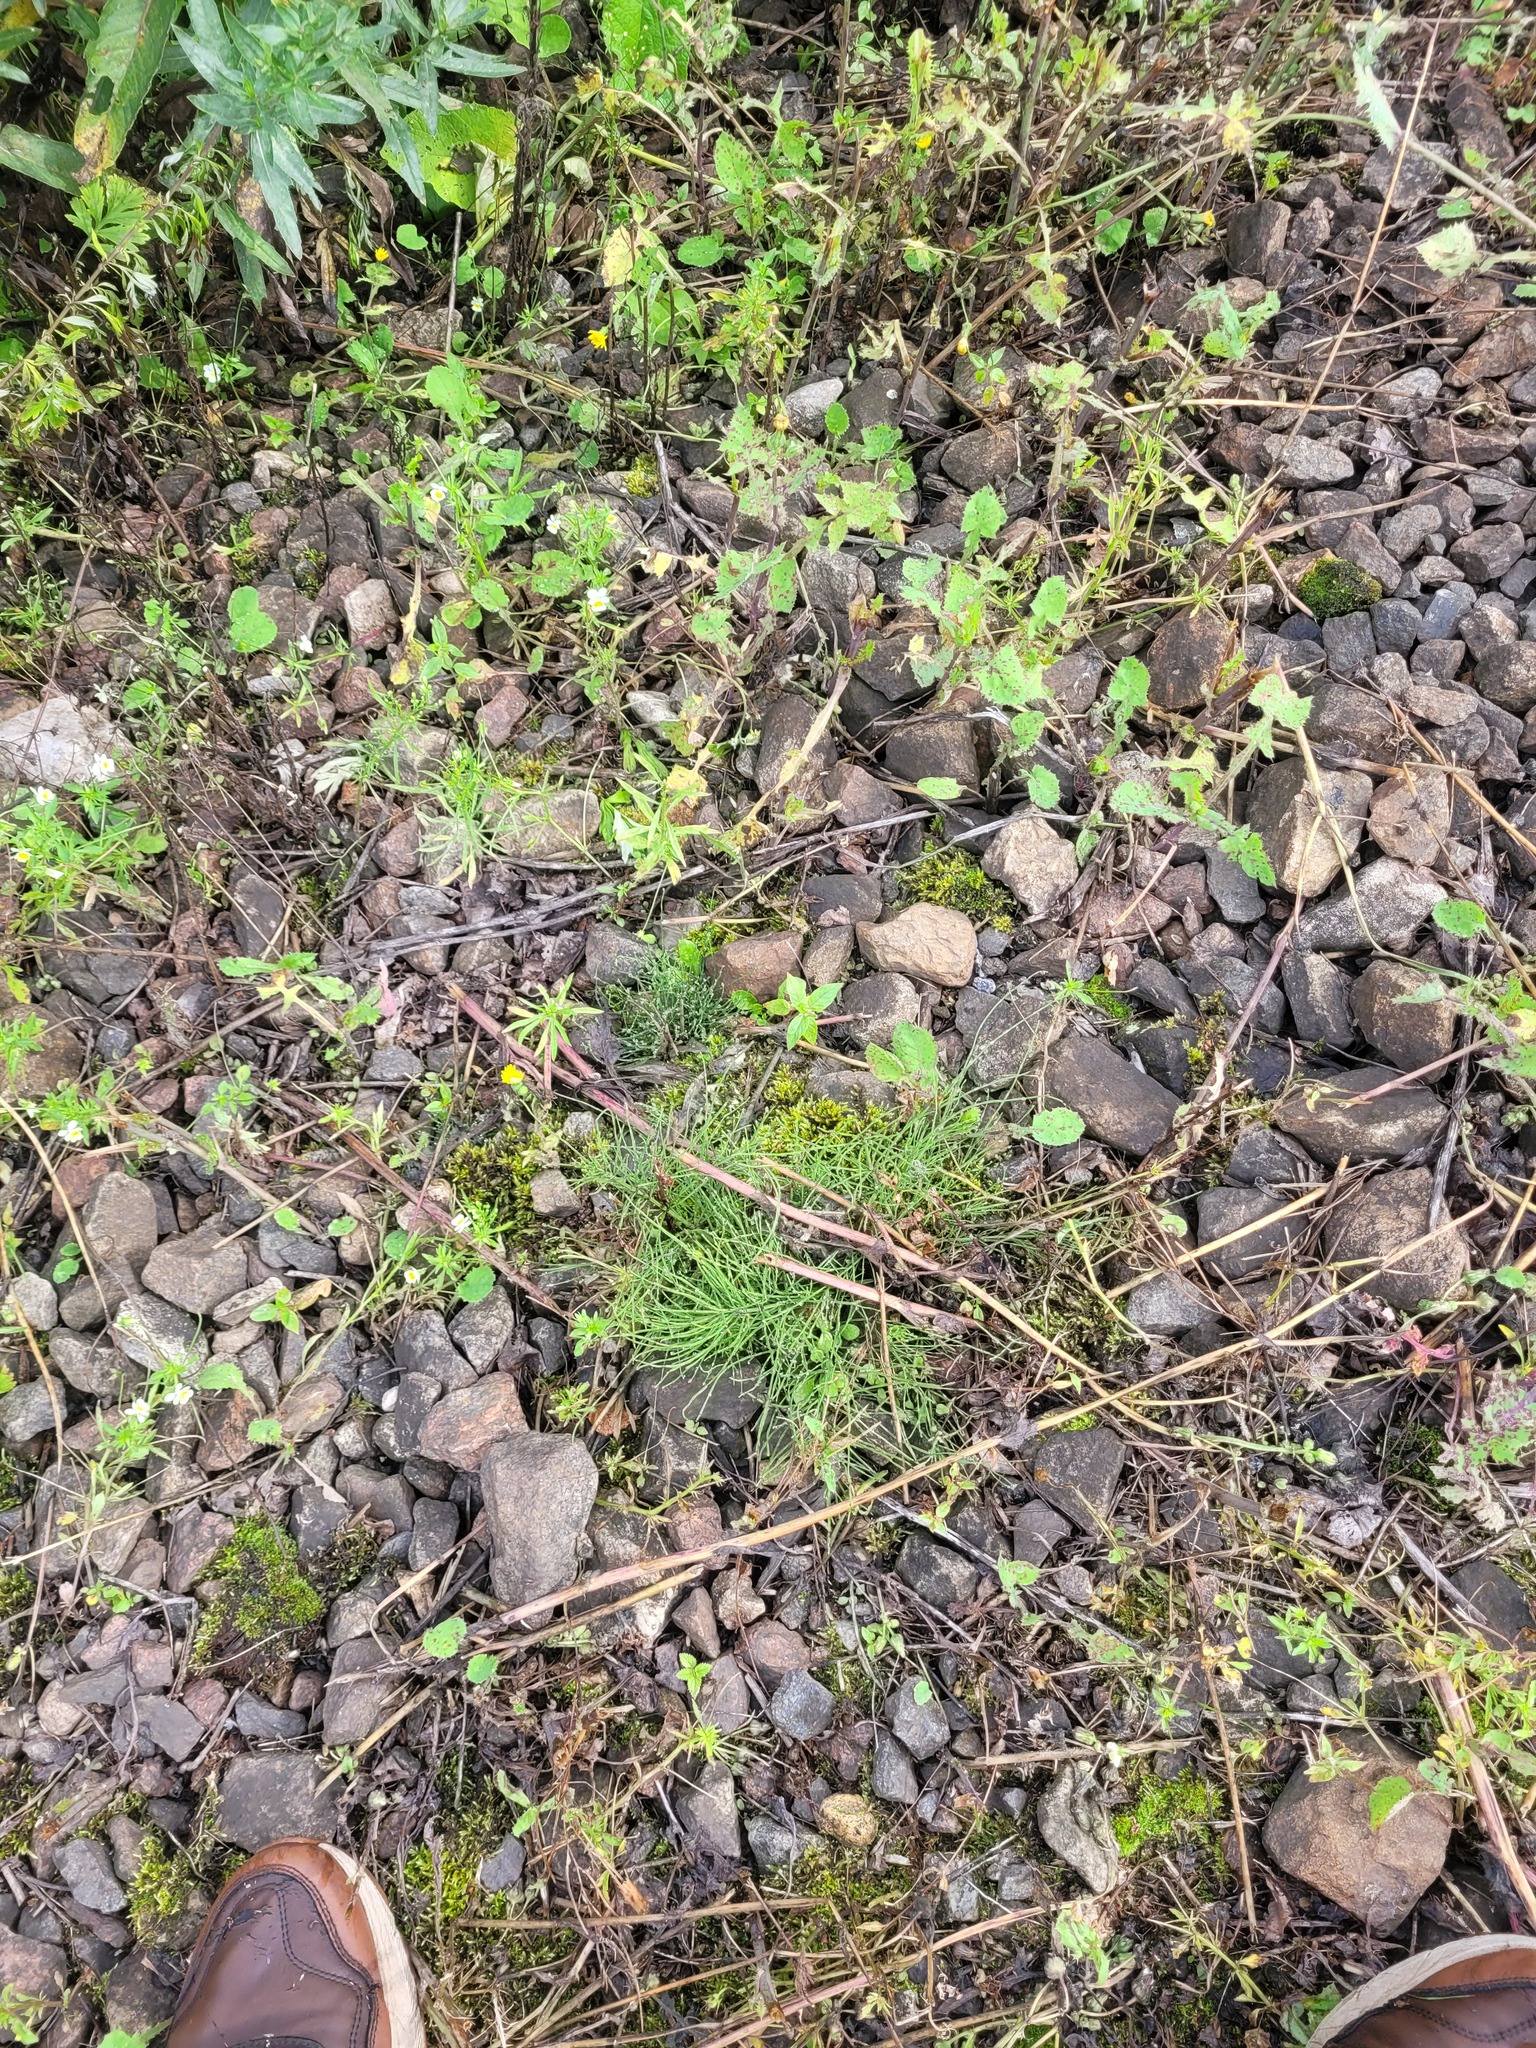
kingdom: Plantae
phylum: Tracheophyta
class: Polypodiopsida
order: Equisetales
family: Equisetaceae
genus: Equisetum
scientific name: Equisetum arvense
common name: Field horsetail
